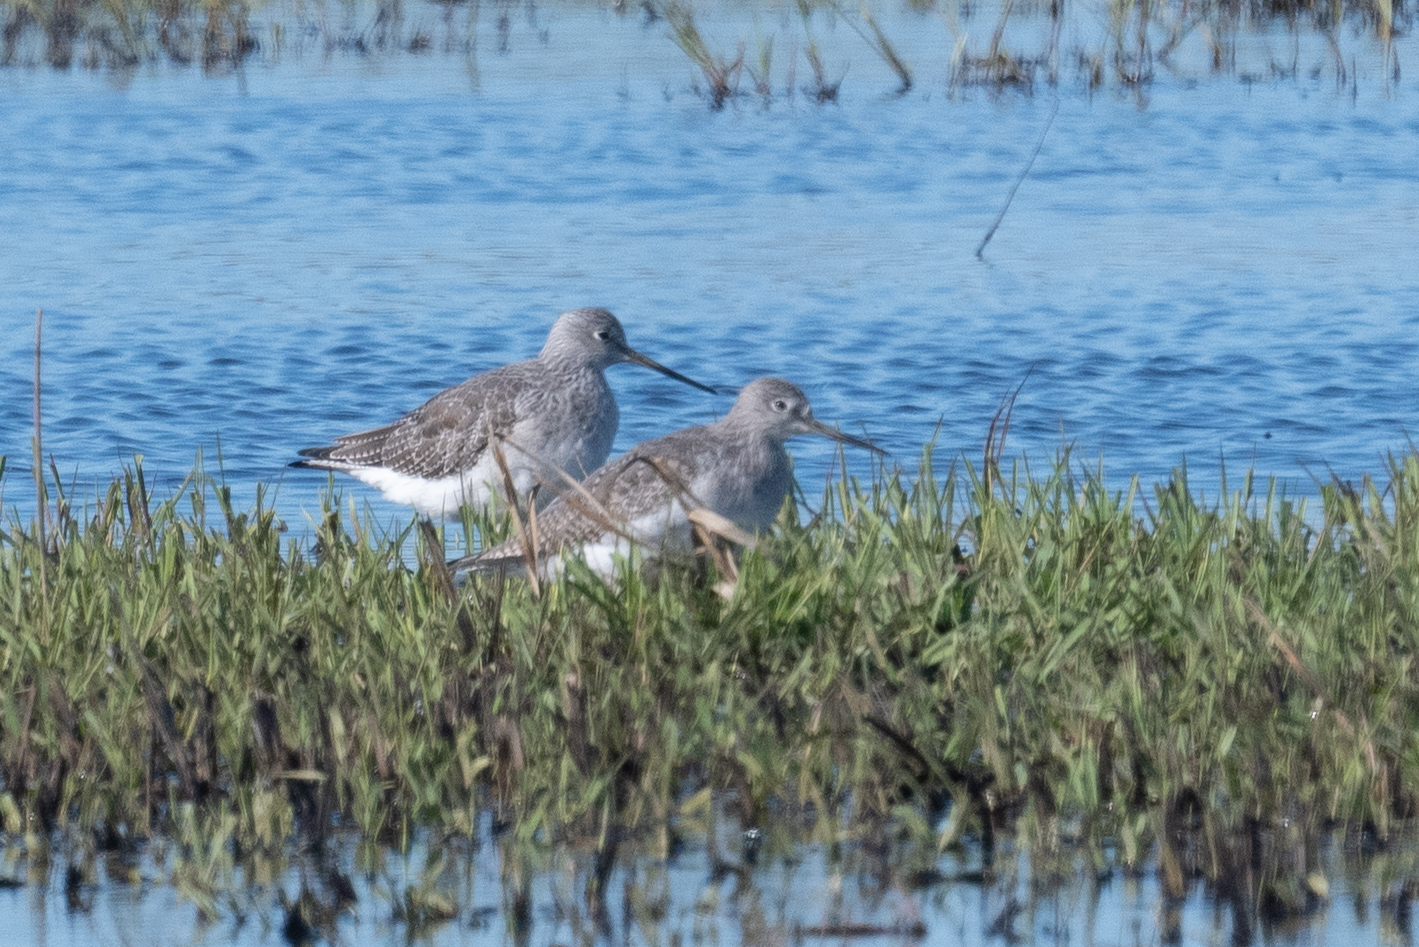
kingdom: Animalia
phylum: Chordata
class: Aves
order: Charadriiformes
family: Scolopacidae
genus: Tringa
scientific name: Tringa melanoleuca
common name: Greater yellowlegs
